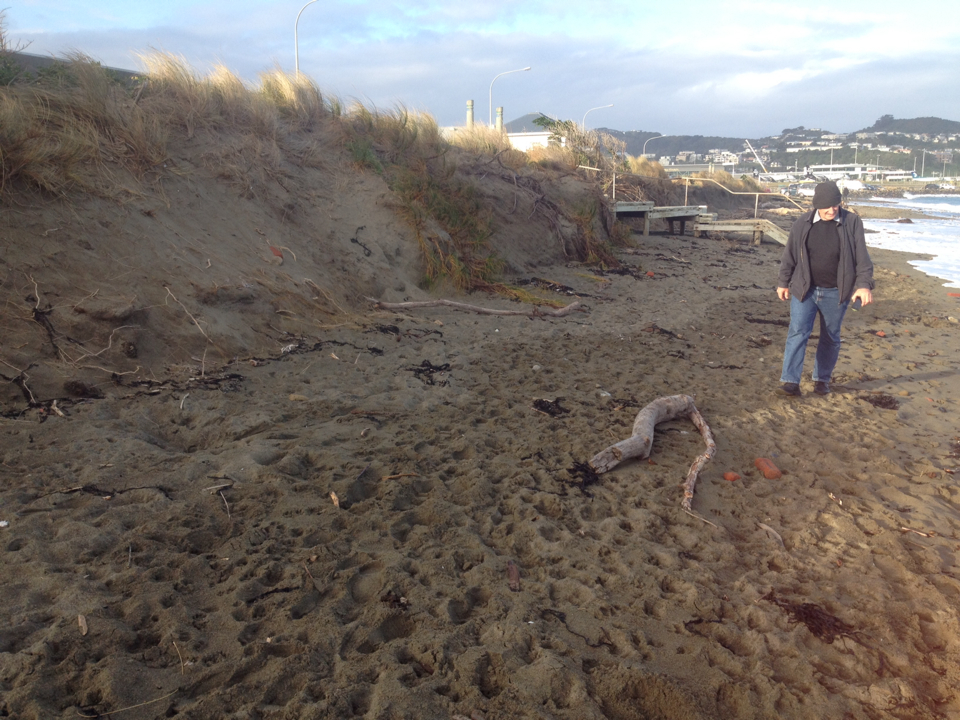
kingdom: Plantae
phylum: Tracheophyta
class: Liliopsida
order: Poales
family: Cyperaceae
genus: Ficinia
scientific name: Ficinia spiralis
